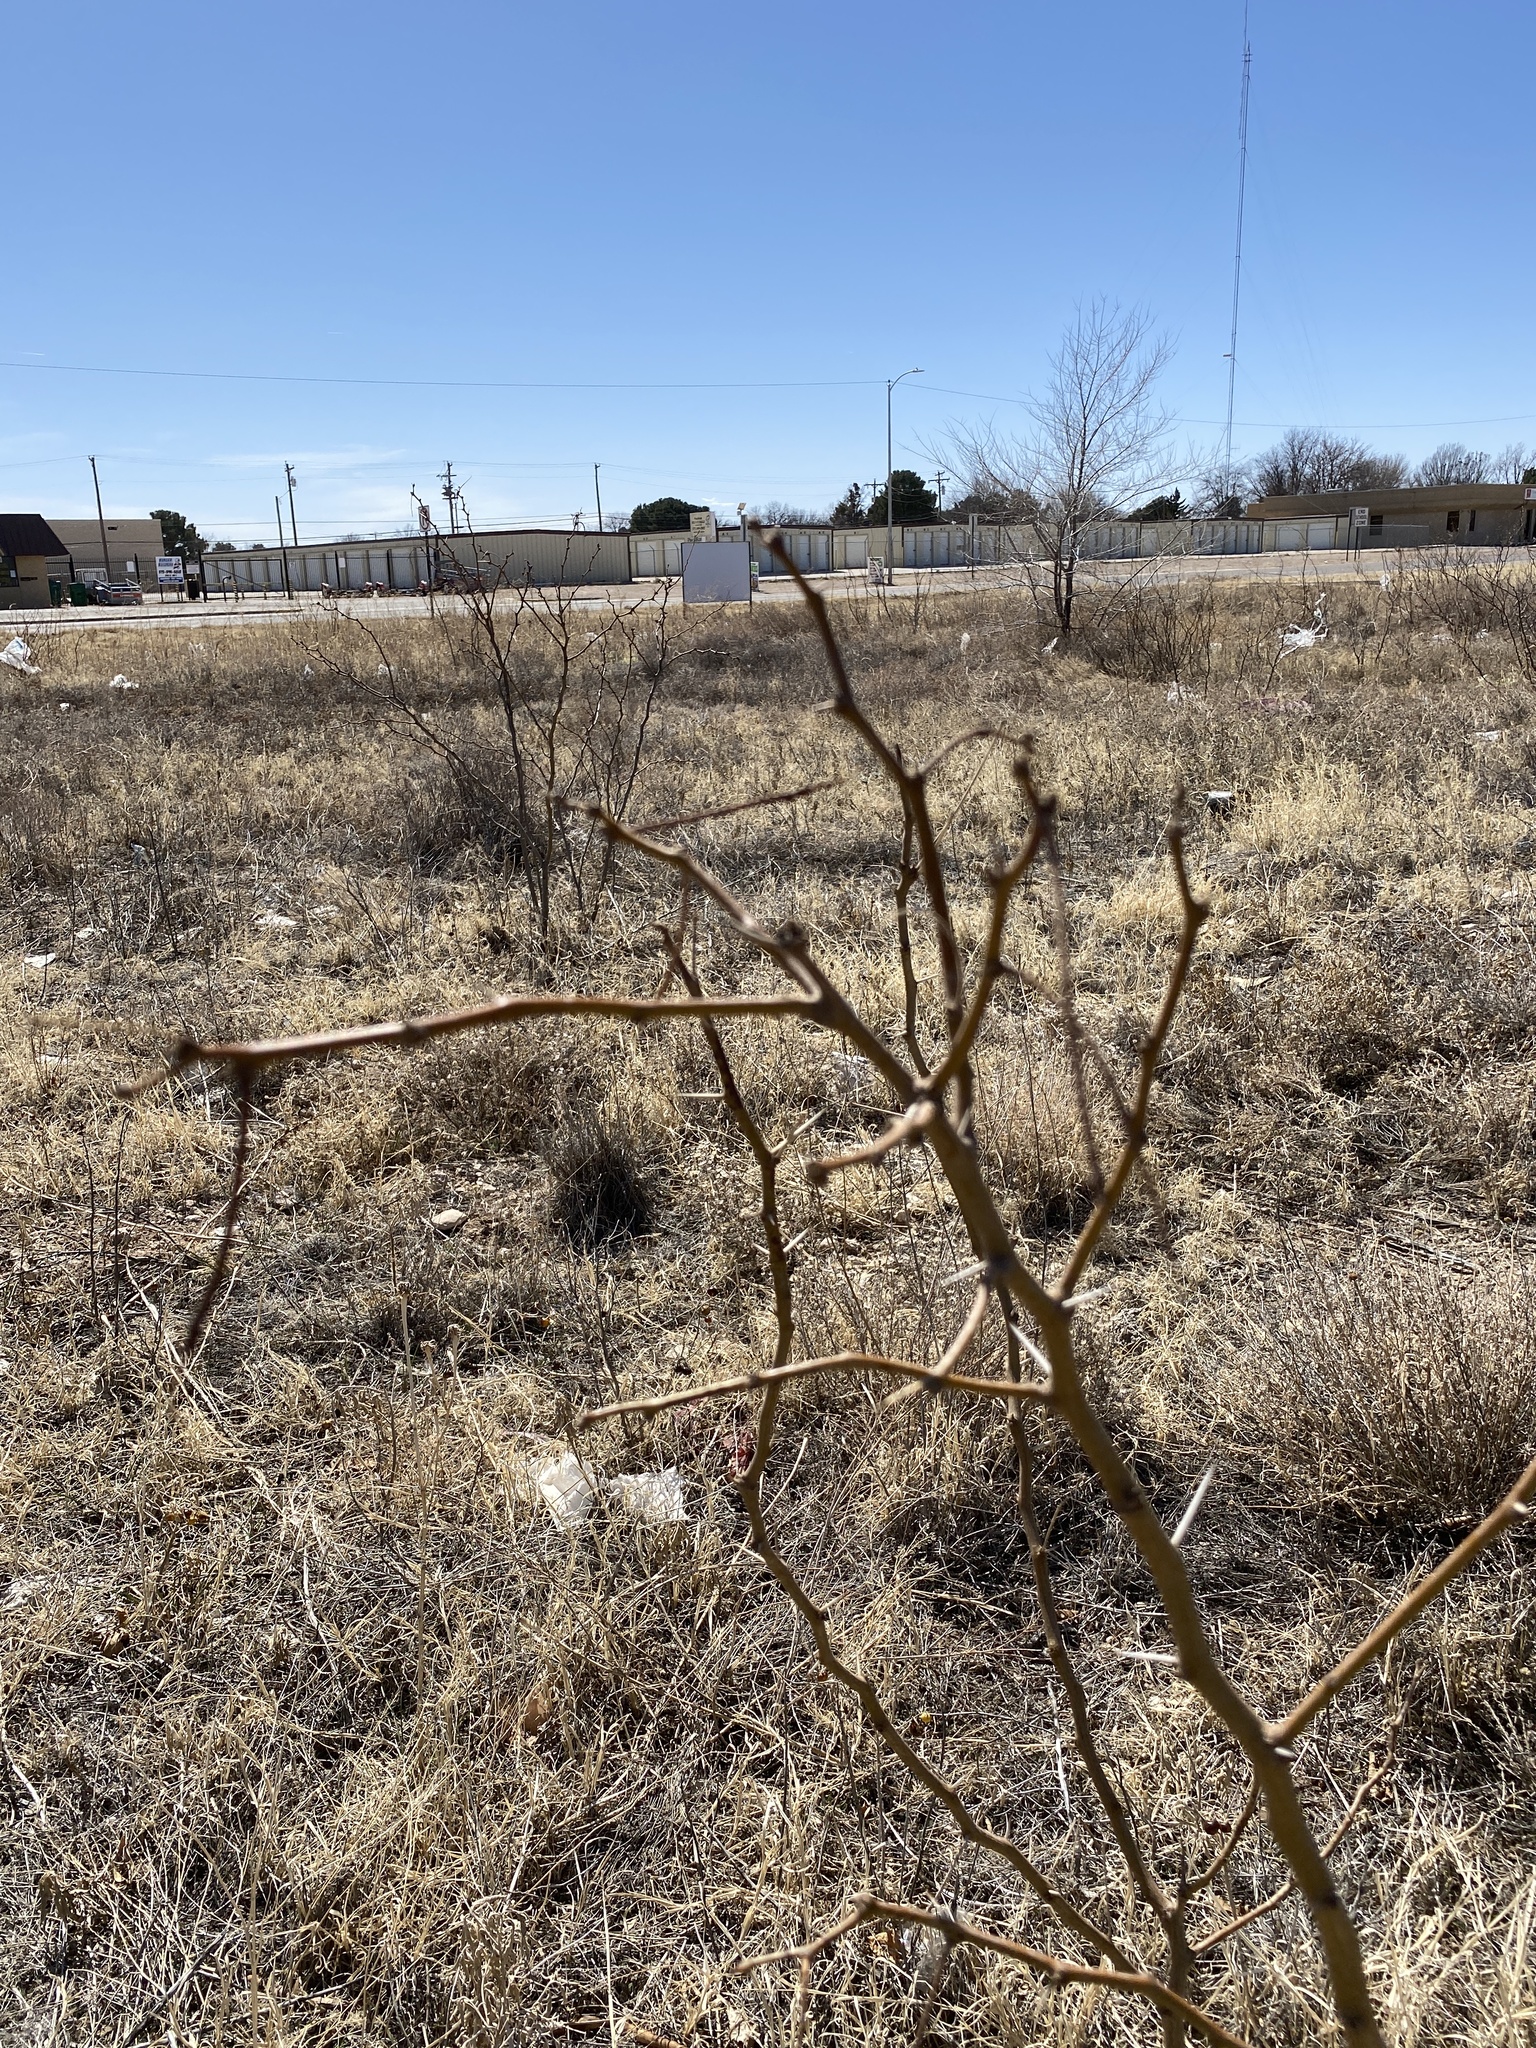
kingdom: Plantae
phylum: Tracheophyta
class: Magnoliopsida
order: Fabales
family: Fabaceae
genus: Prosopis
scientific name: Prosopis glandulosa
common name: Honey mesquite
